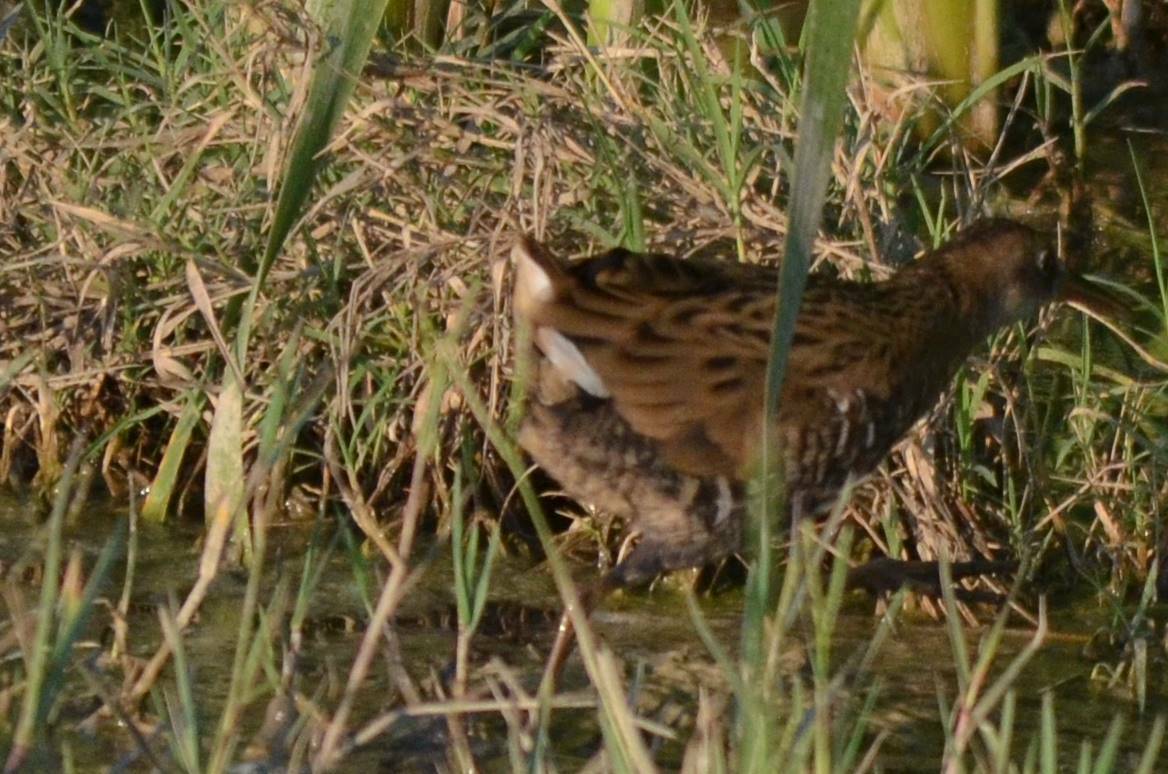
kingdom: Animalia
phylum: Chordata
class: Aves
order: Gruiformes
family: Rallidae
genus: Rallus
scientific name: Rallus aquaticus
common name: Water rail
